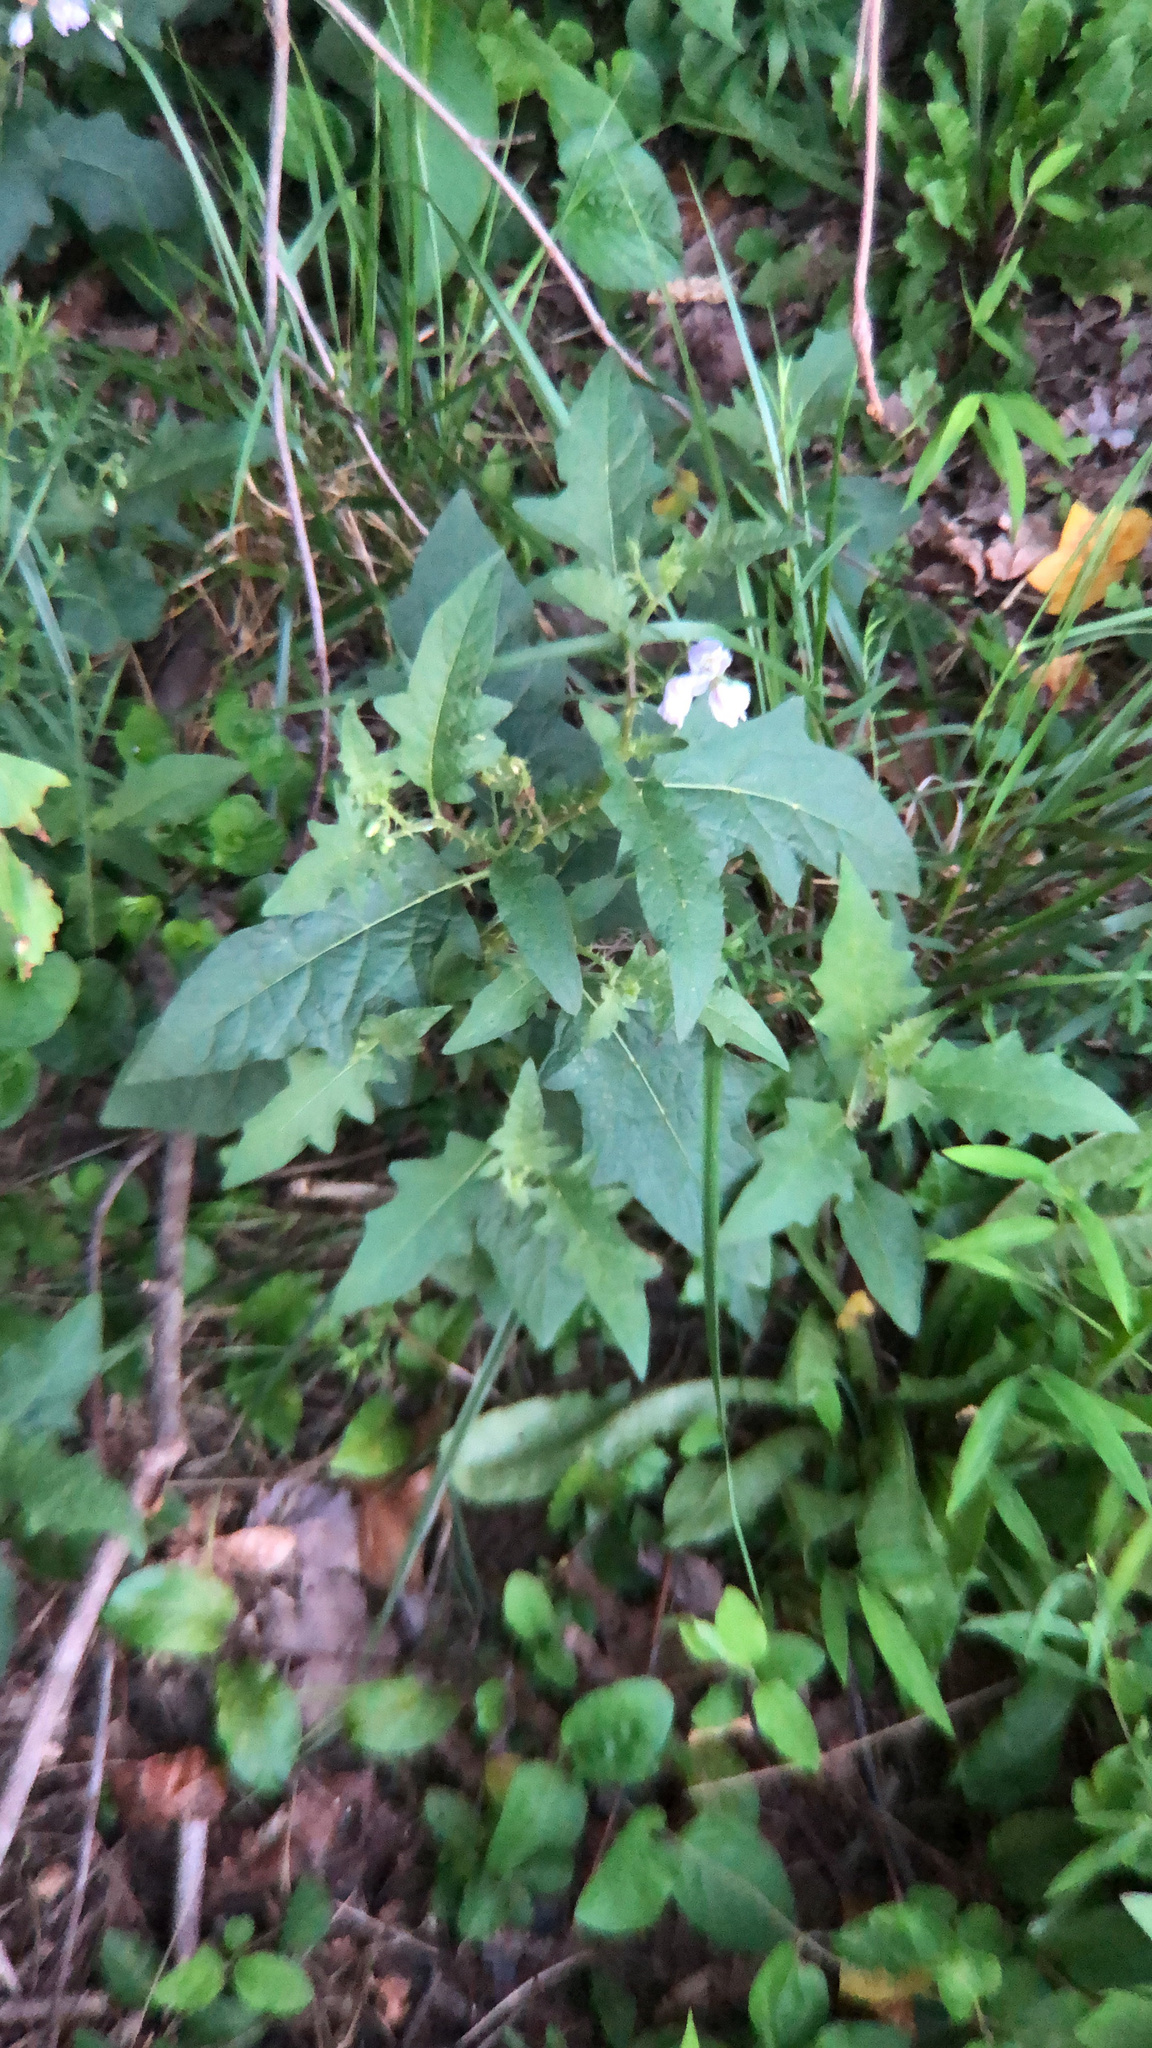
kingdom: Plantae
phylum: Tracheophyta
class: Magnoliopsida
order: Solanales
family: Solanaceae
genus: Solanum
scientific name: Solanum carolinense
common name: Horse-nettle
